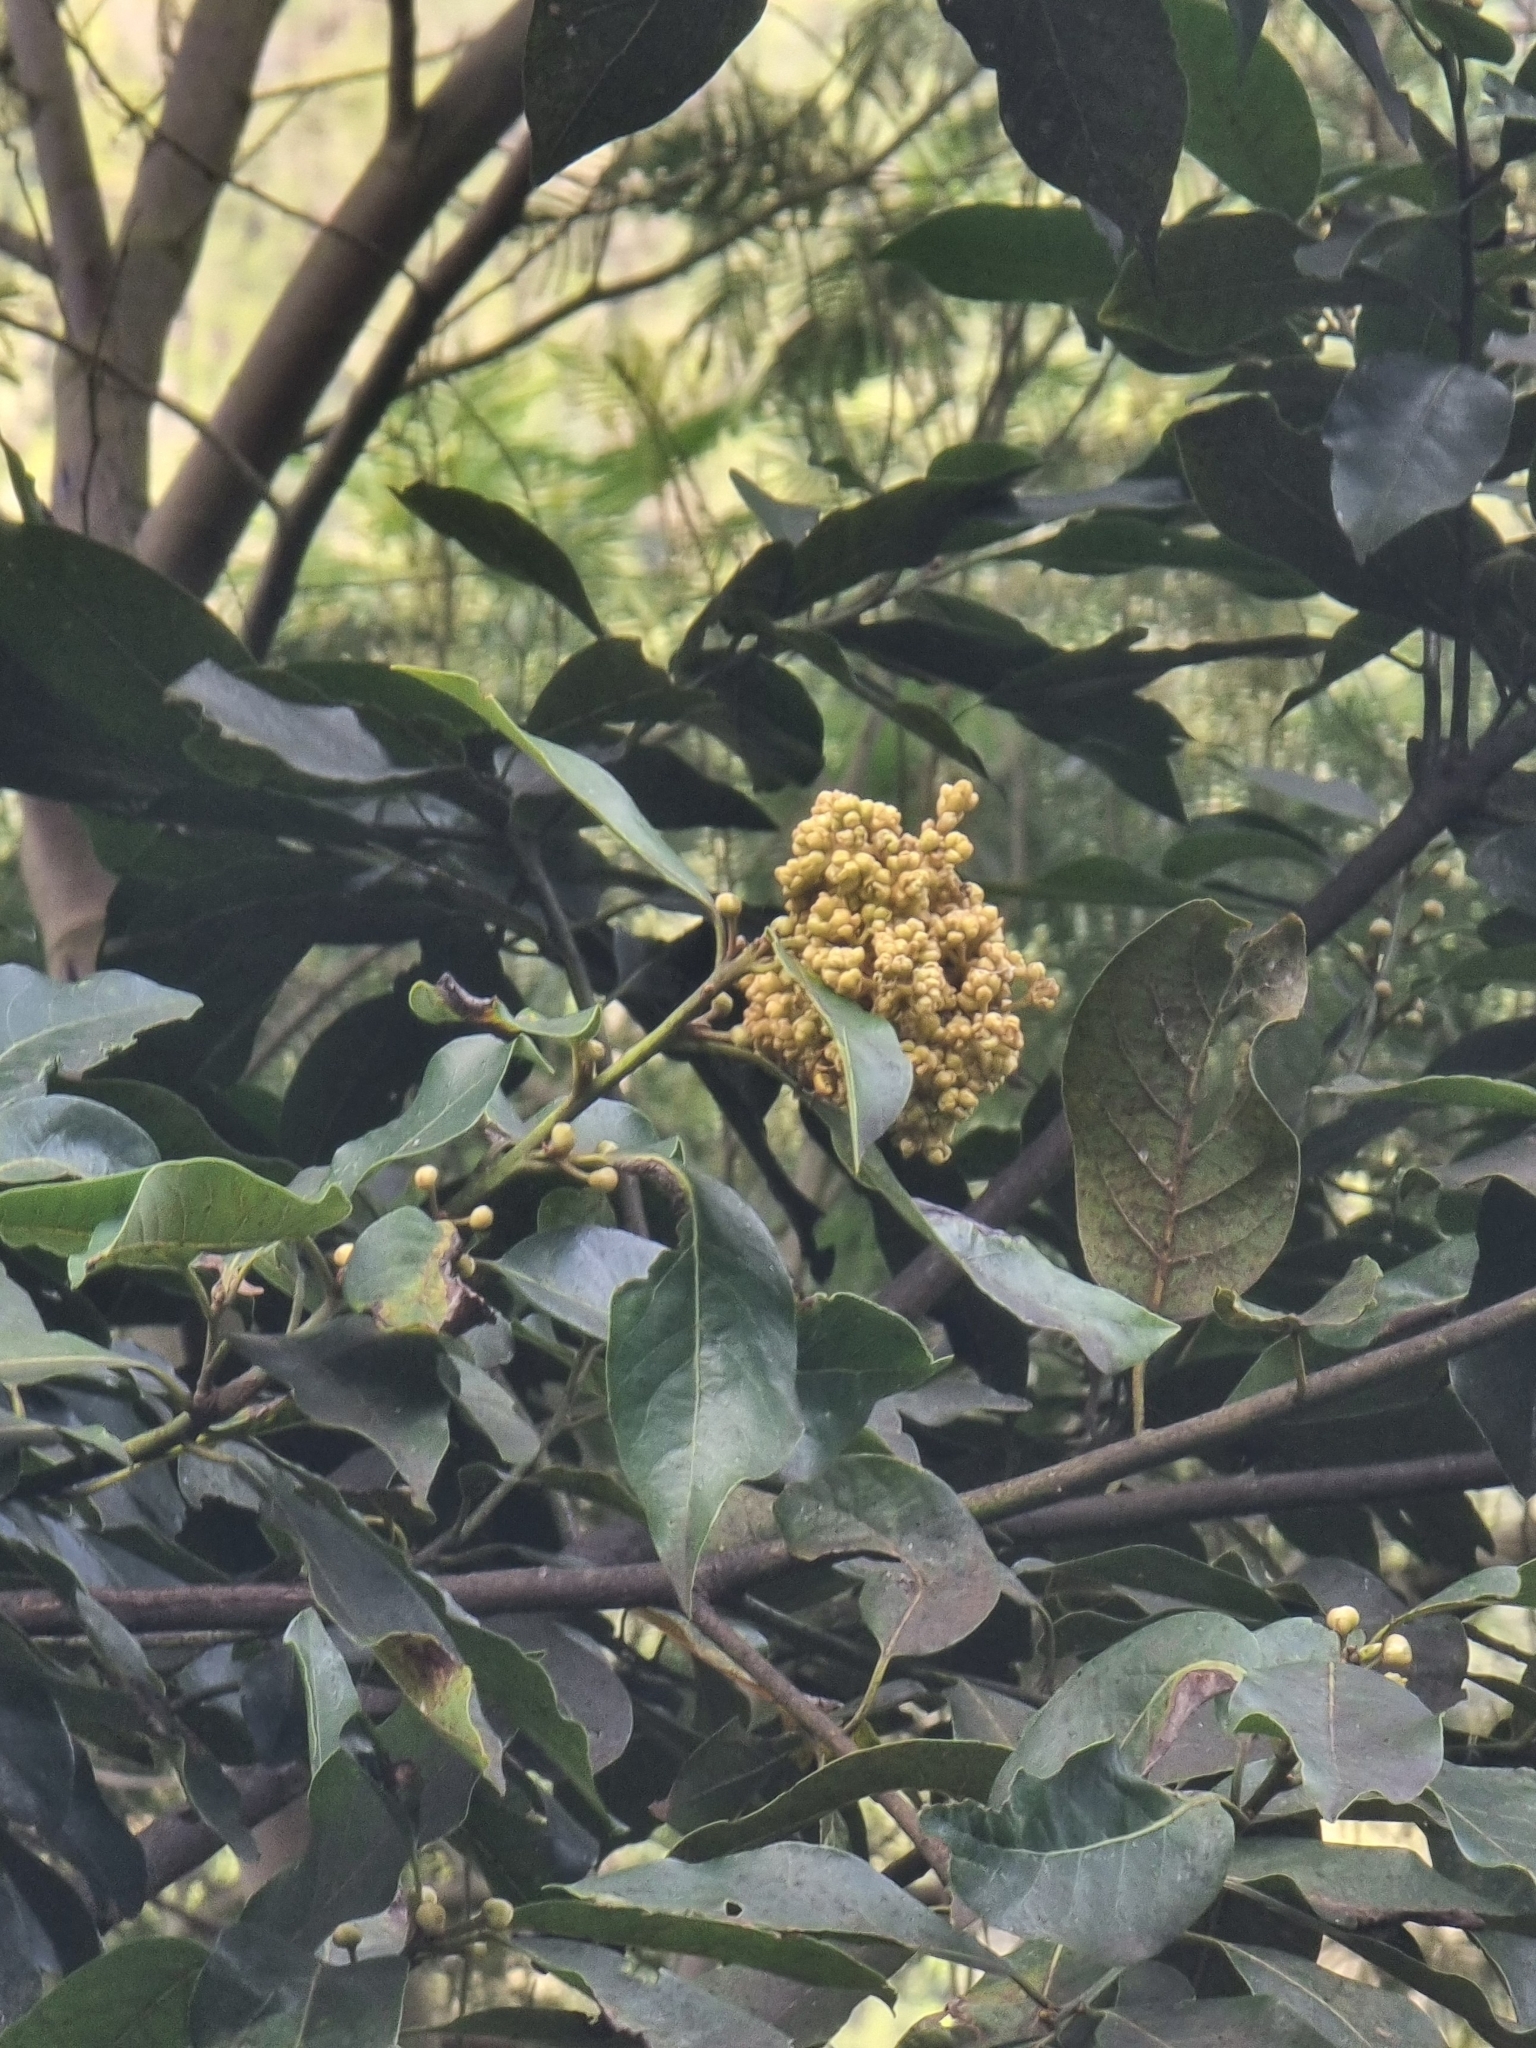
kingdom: Plantae
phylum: Tracheophyta
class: Magnoliopsida
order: Laurales
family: Lauraceae
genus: Laurus
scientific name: Laurus novocanariensis
